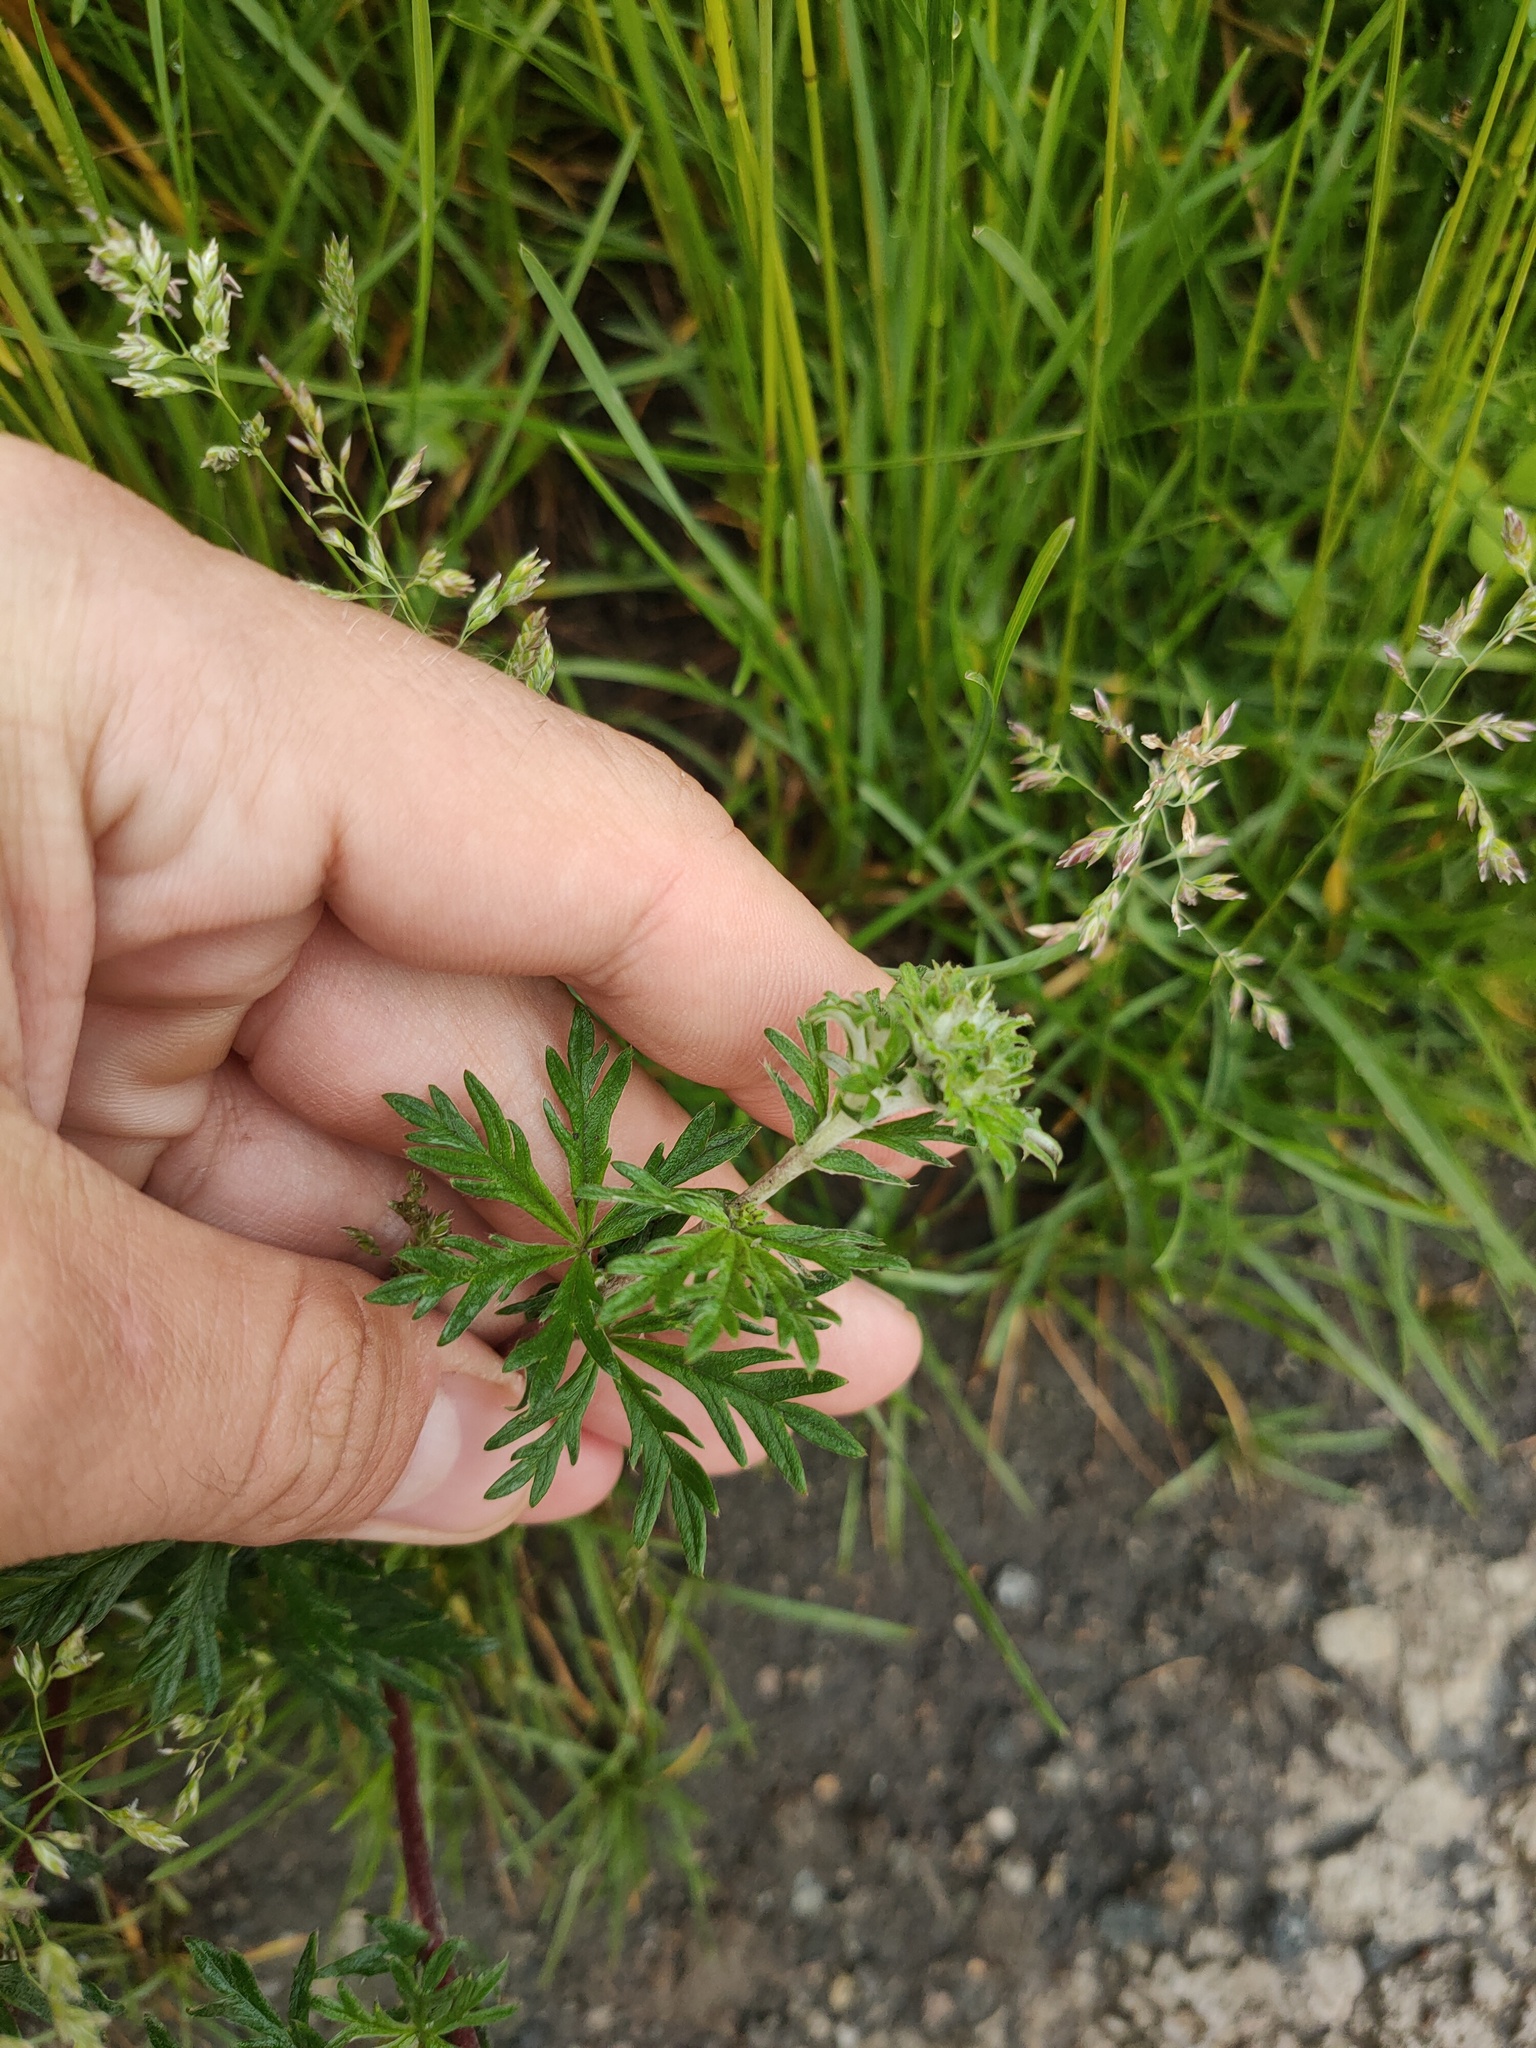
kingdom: Plantae
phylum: Tracheophyta
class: Magnoliopsida
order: Rosales
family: Rosaceae
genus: Potentilla
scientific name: Potentilla argentea
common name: Hoary cinquefoil
